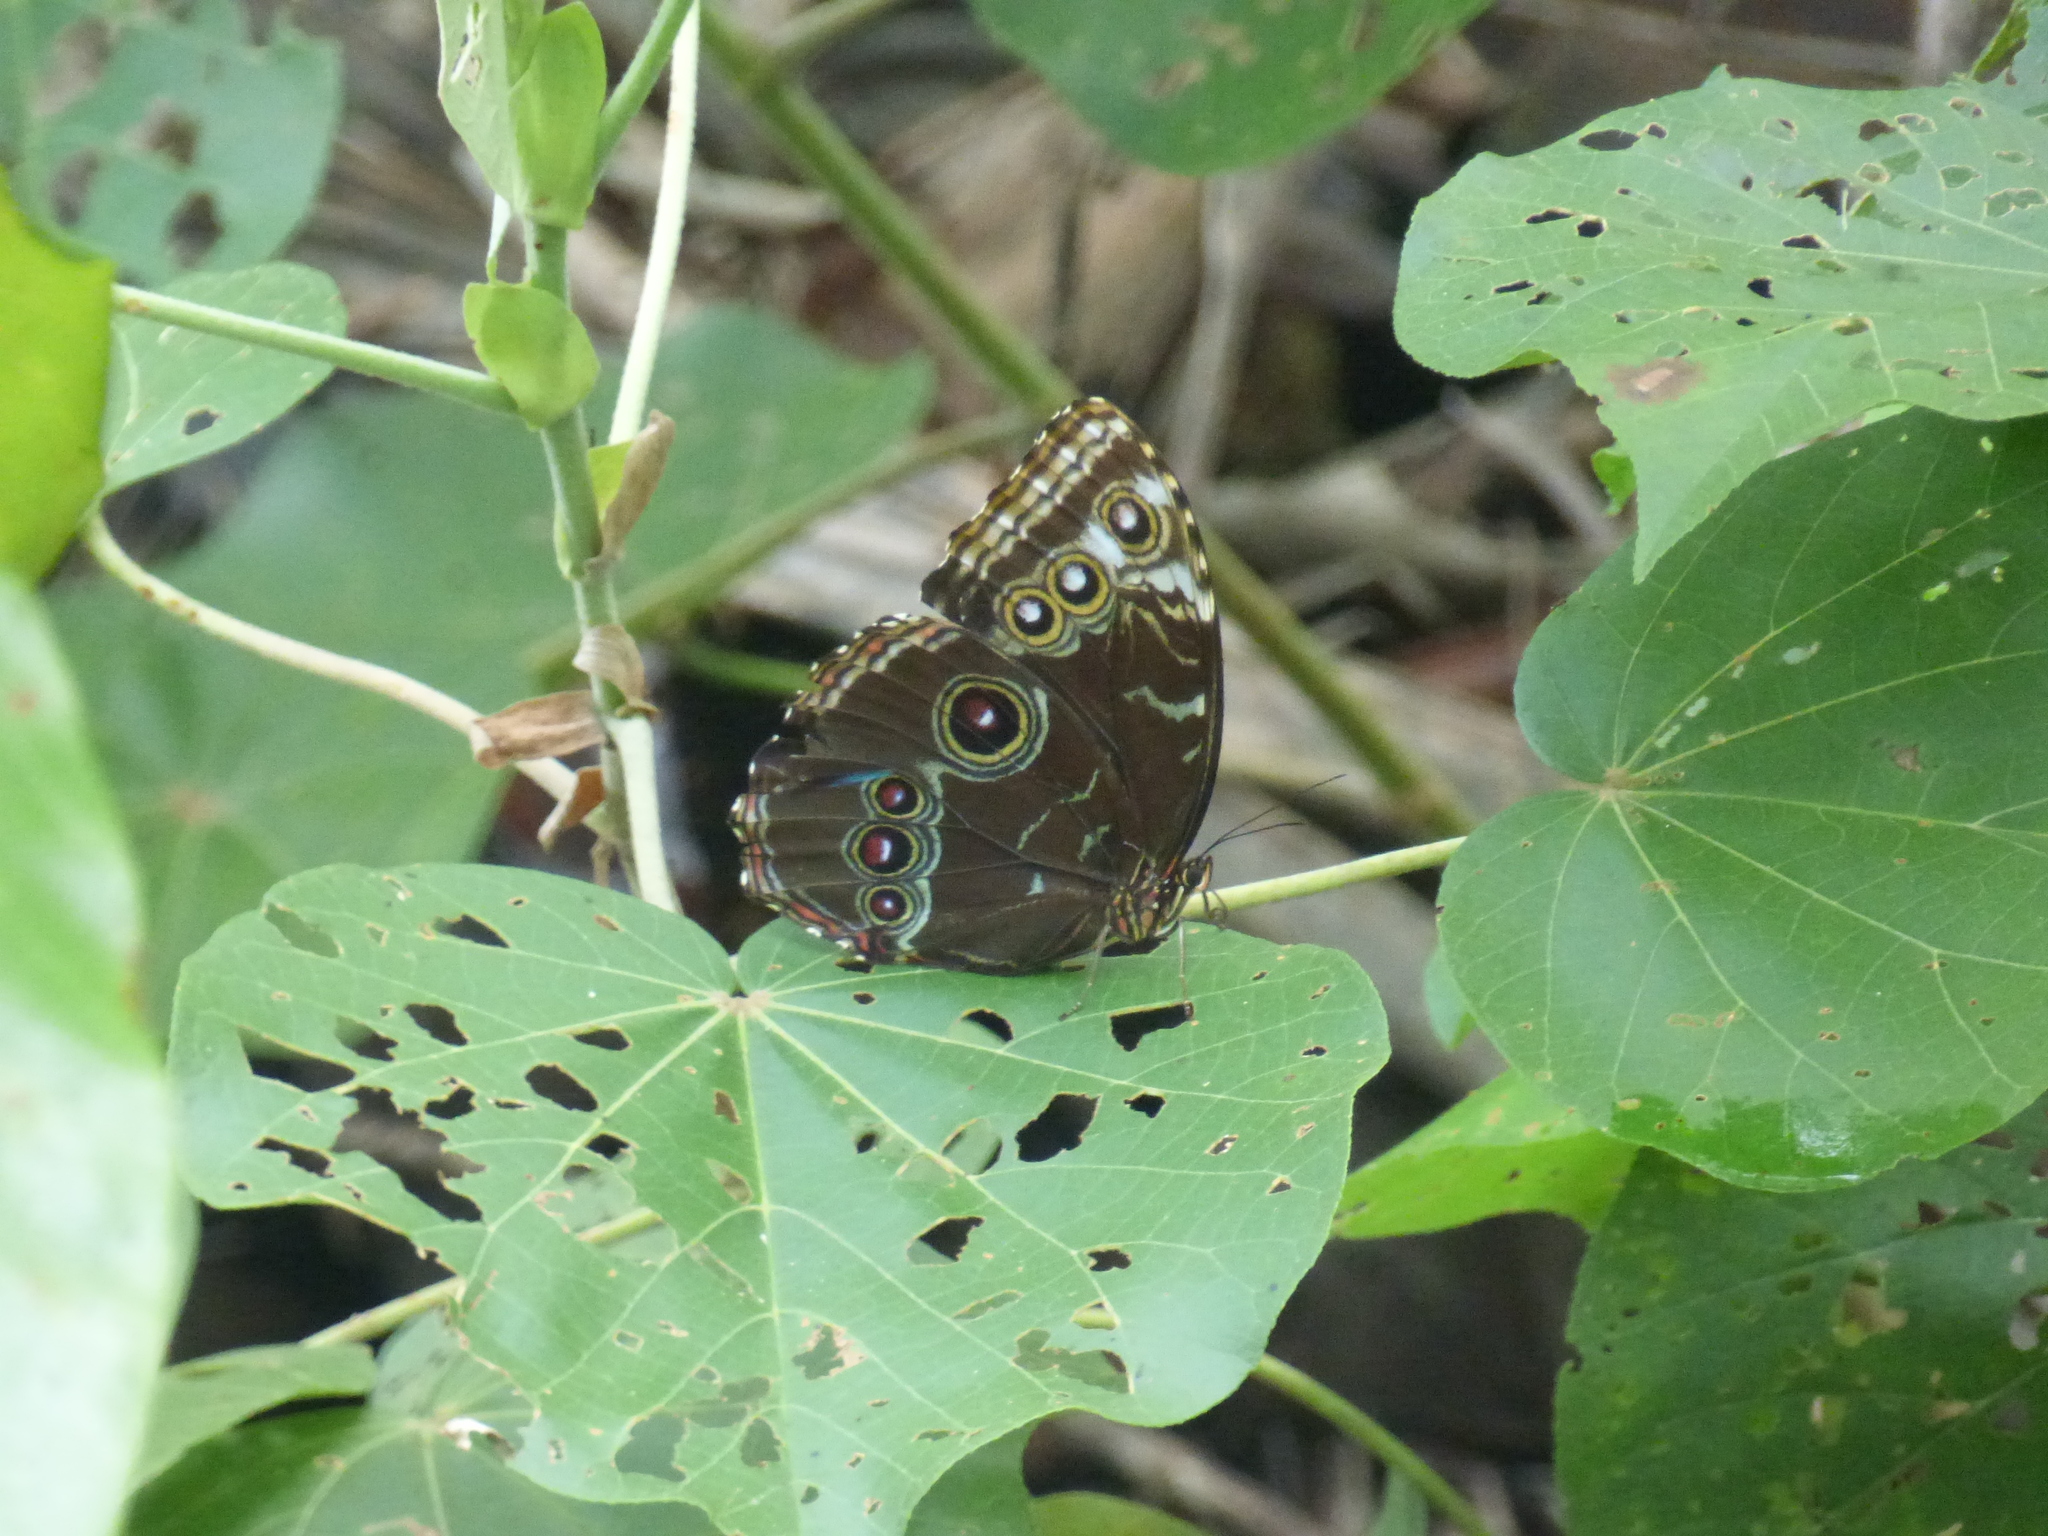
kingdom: Animalia
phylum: Arthropoda
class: Insecta
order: Lepidoptera
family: Nymphalidae
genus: Morpho
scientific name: Morpho helenor
